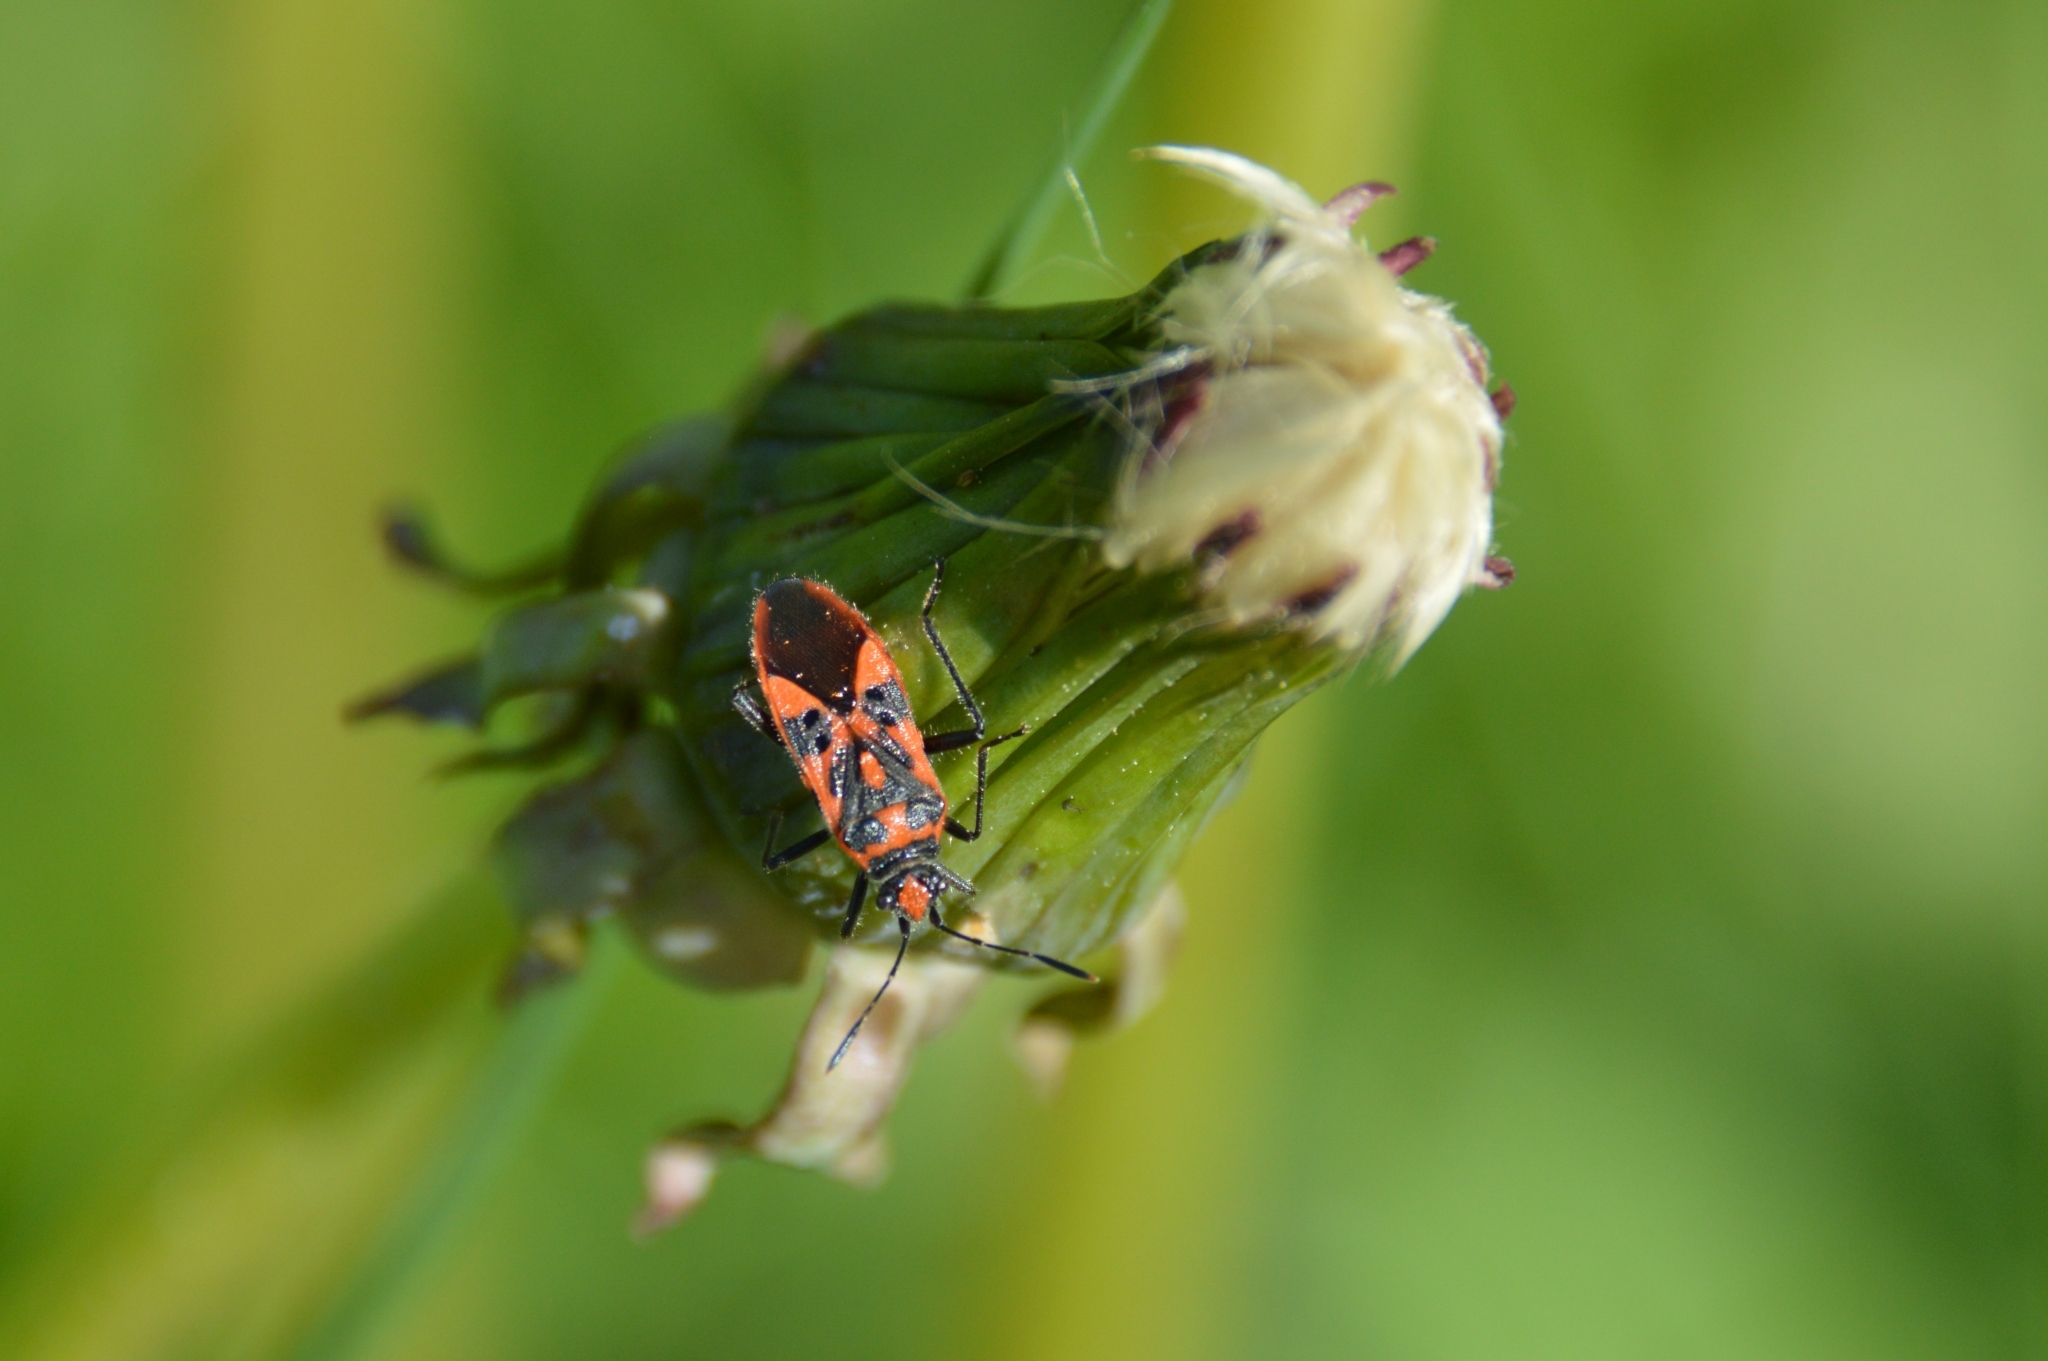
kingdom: Animalia
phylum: Arthropoda
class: Insecta
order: Hemiptera
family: Rhopalidae
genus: Corizus
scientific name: Corizus hyoscyami
